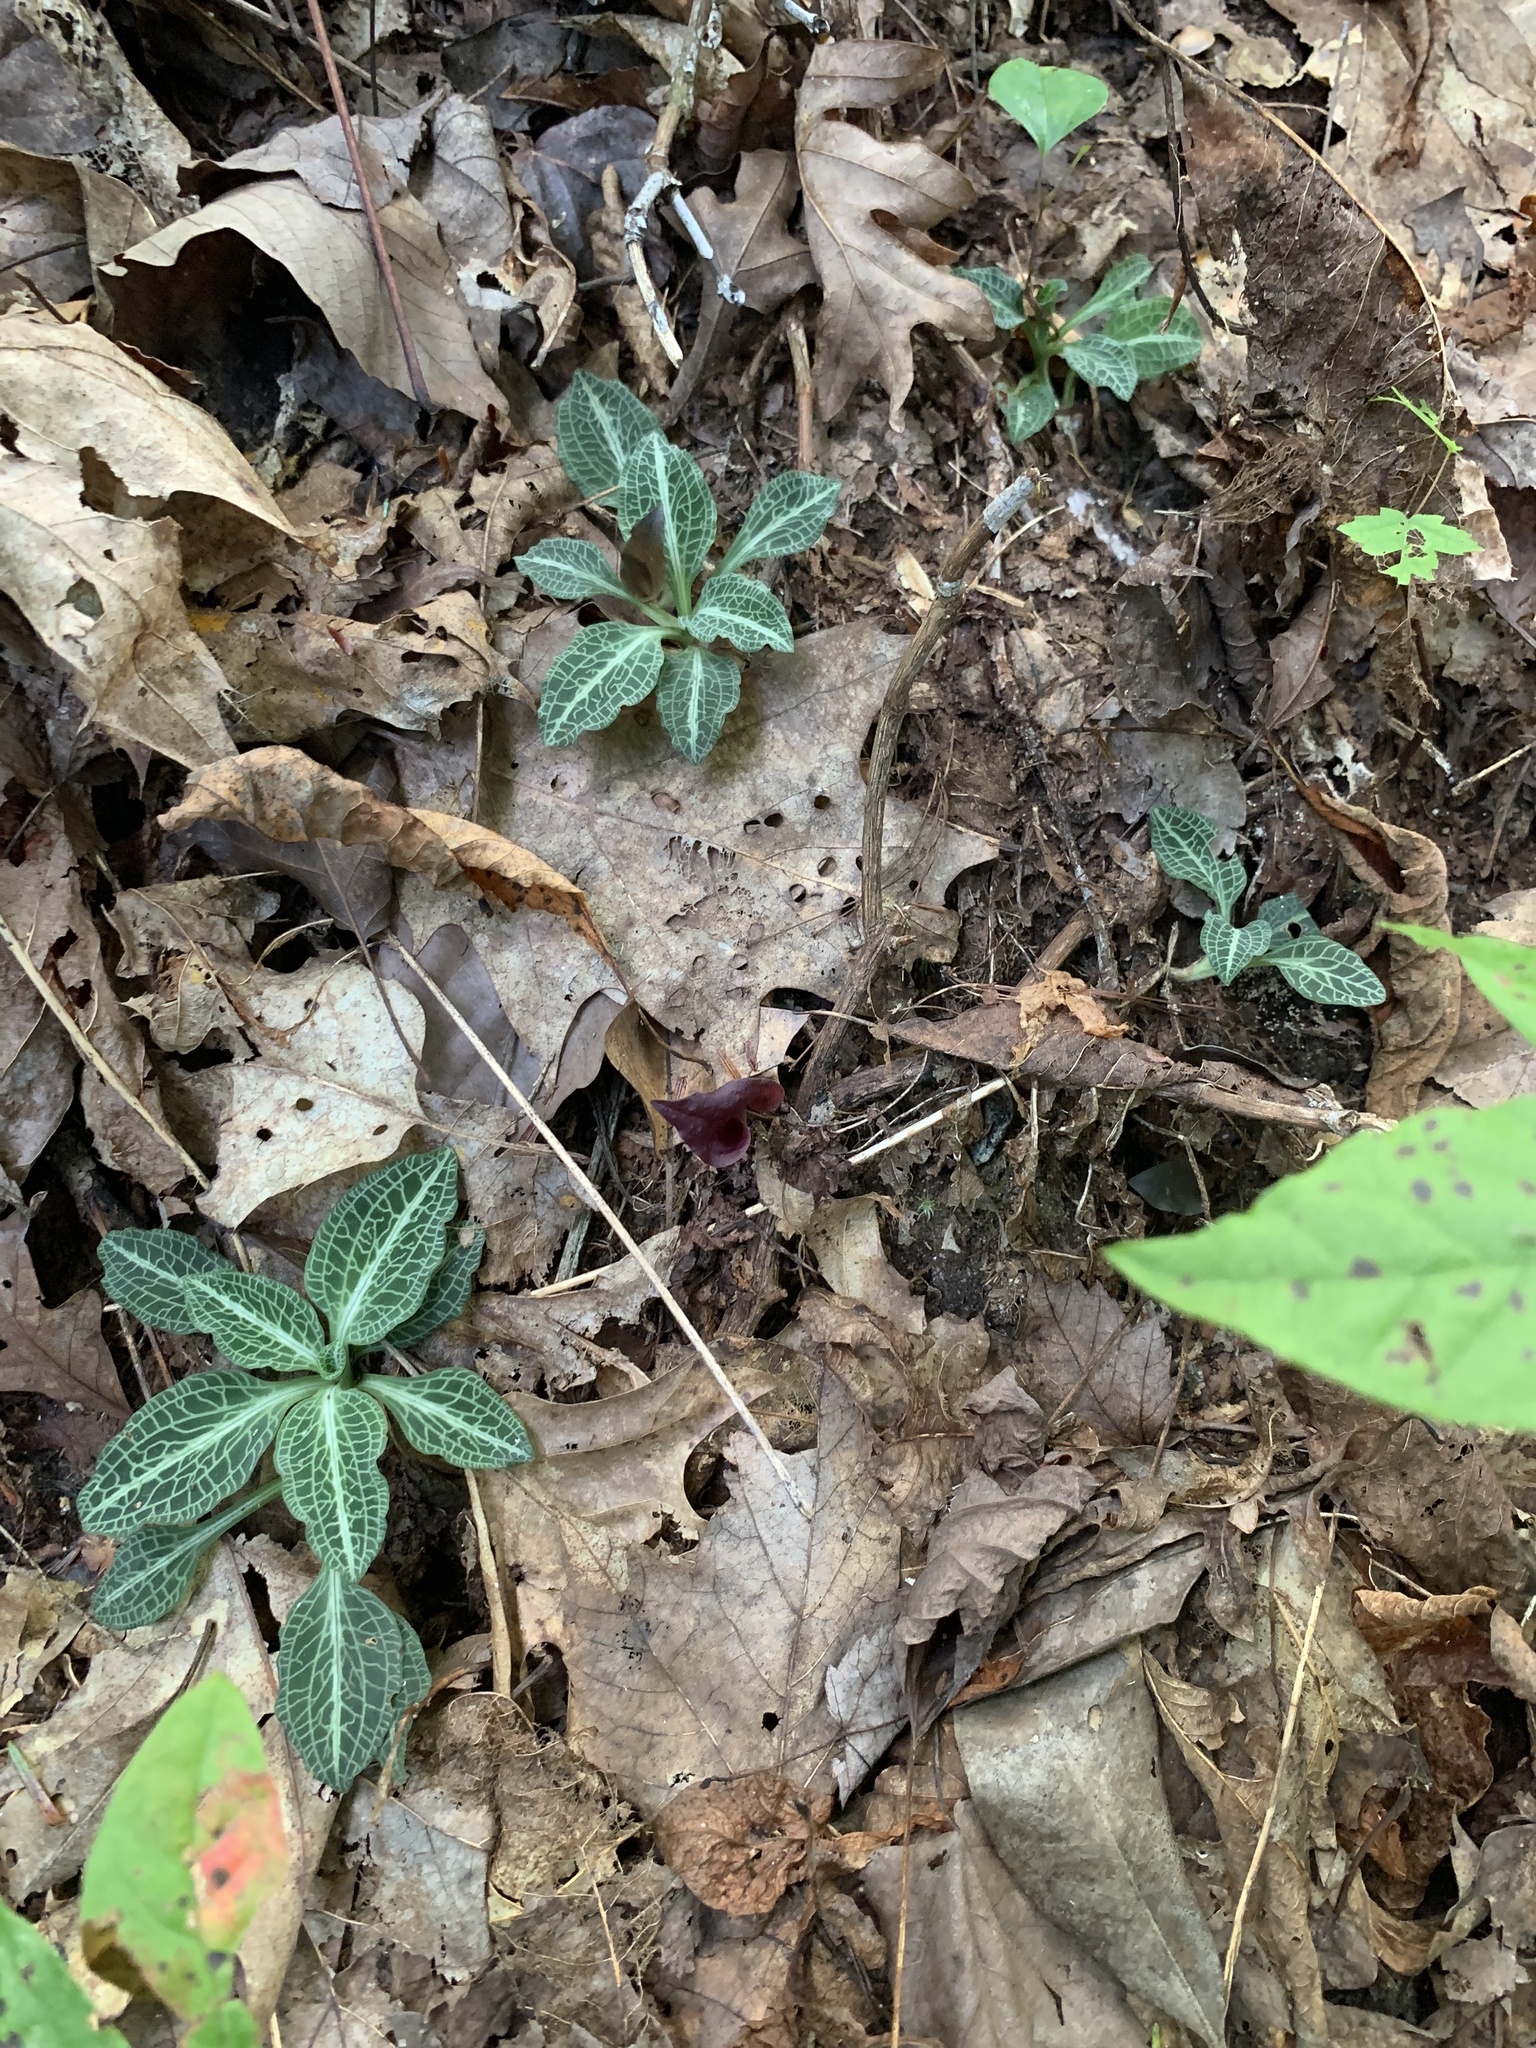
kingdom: Plantae
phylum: Tracheophyta
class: Liliopsida
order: Asparagales
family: Orchidaceae
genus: Goodyera
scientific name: Goodyera pubescens
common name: Downy rattlesnake-plantain
